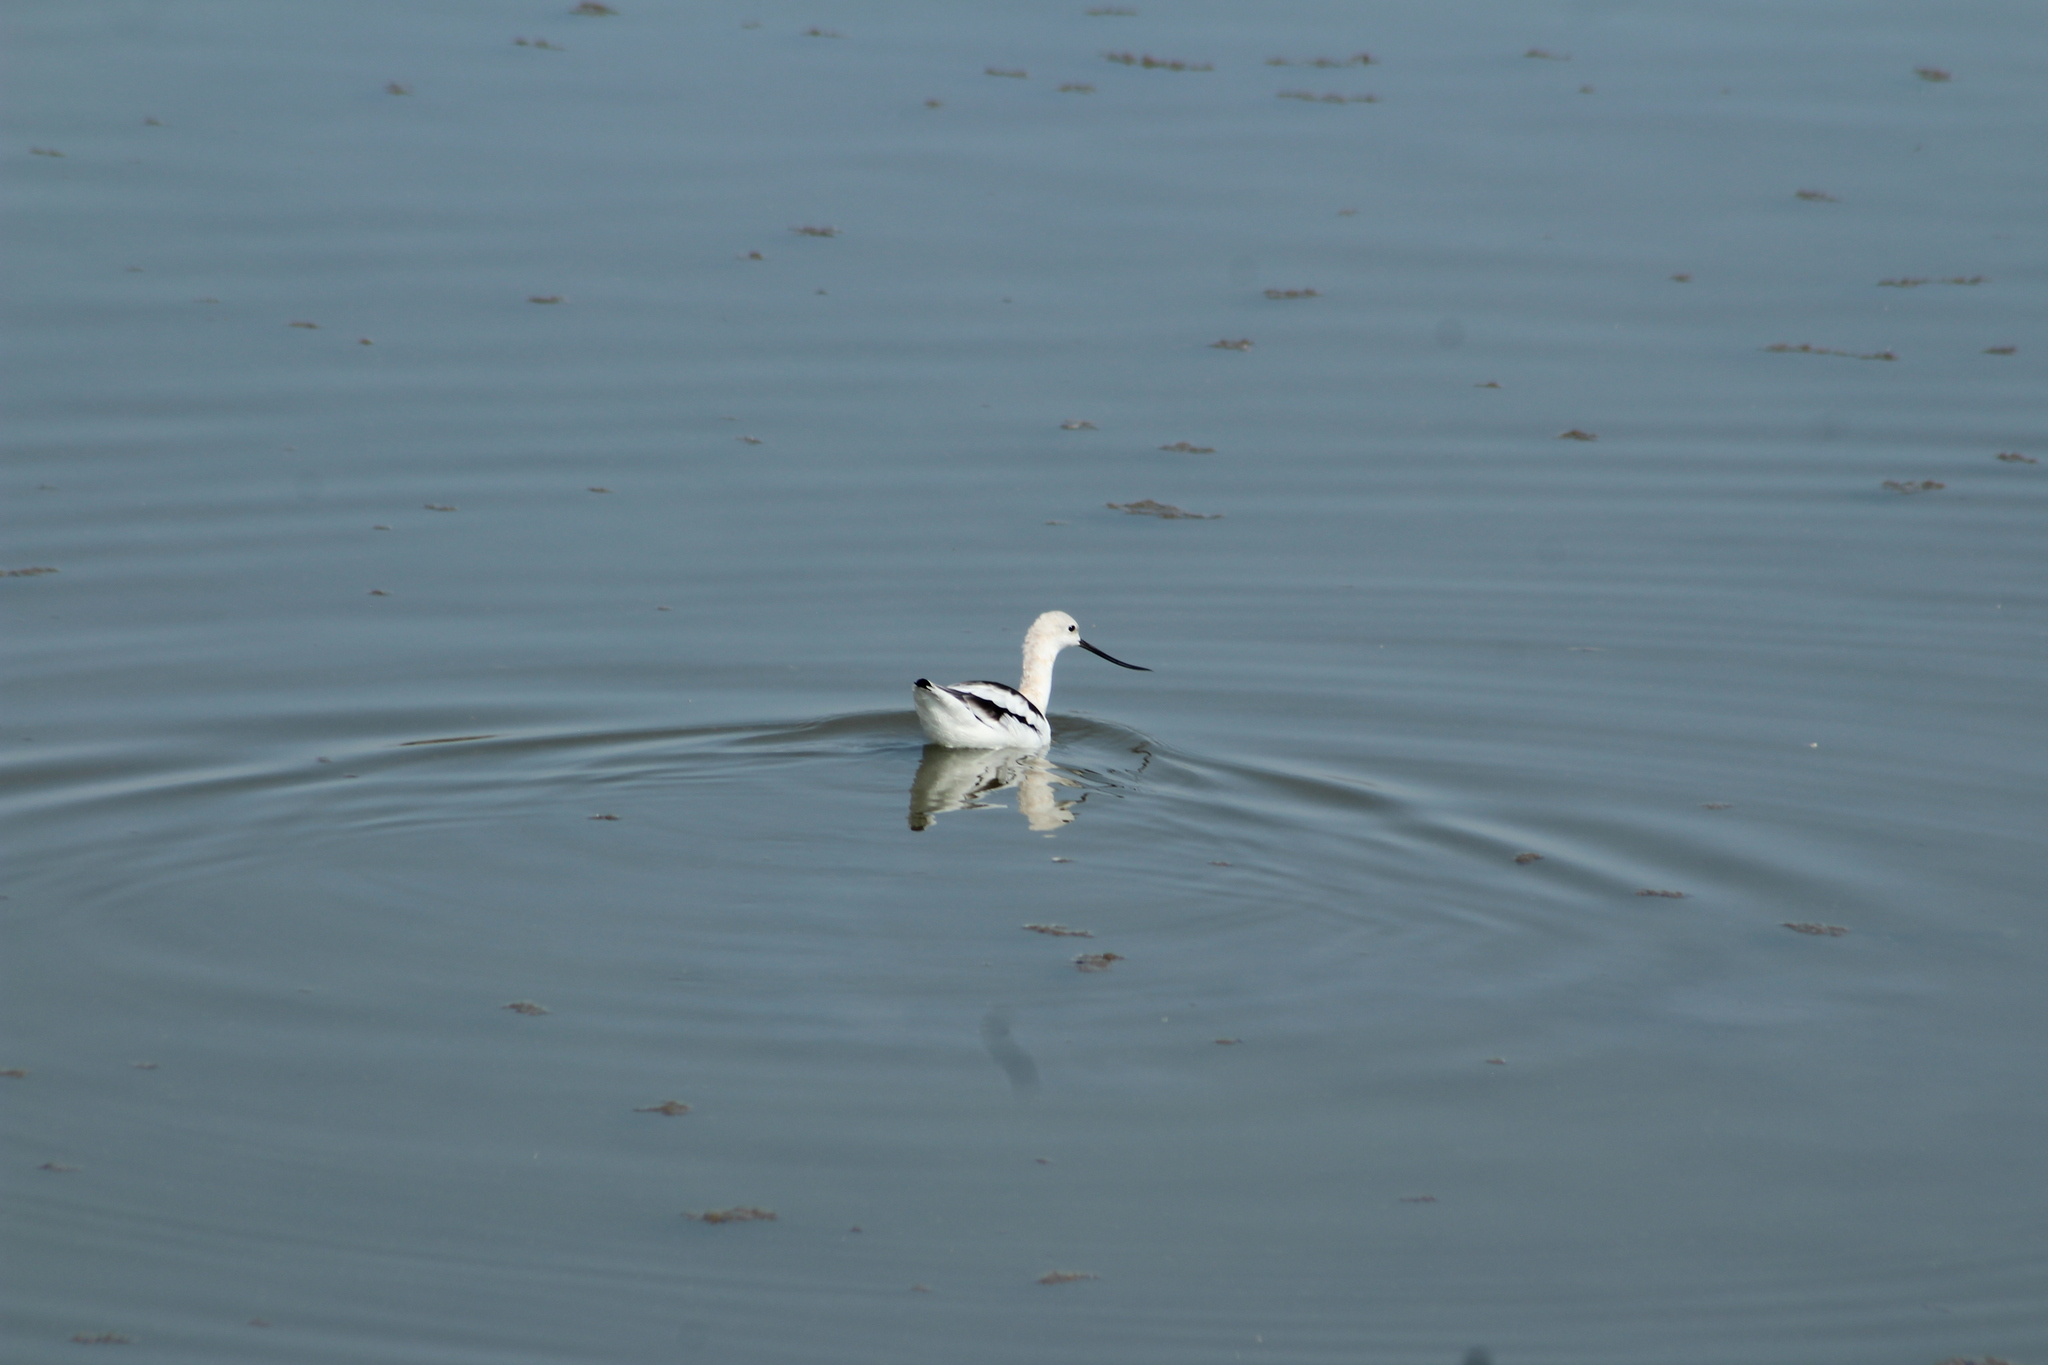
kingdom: Animalia
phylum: Chordata
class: Aves
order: Charadriiformes
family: Recurvirostridae
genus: Recurvirostra
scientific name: Recurvirostra americana
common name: American avocet
